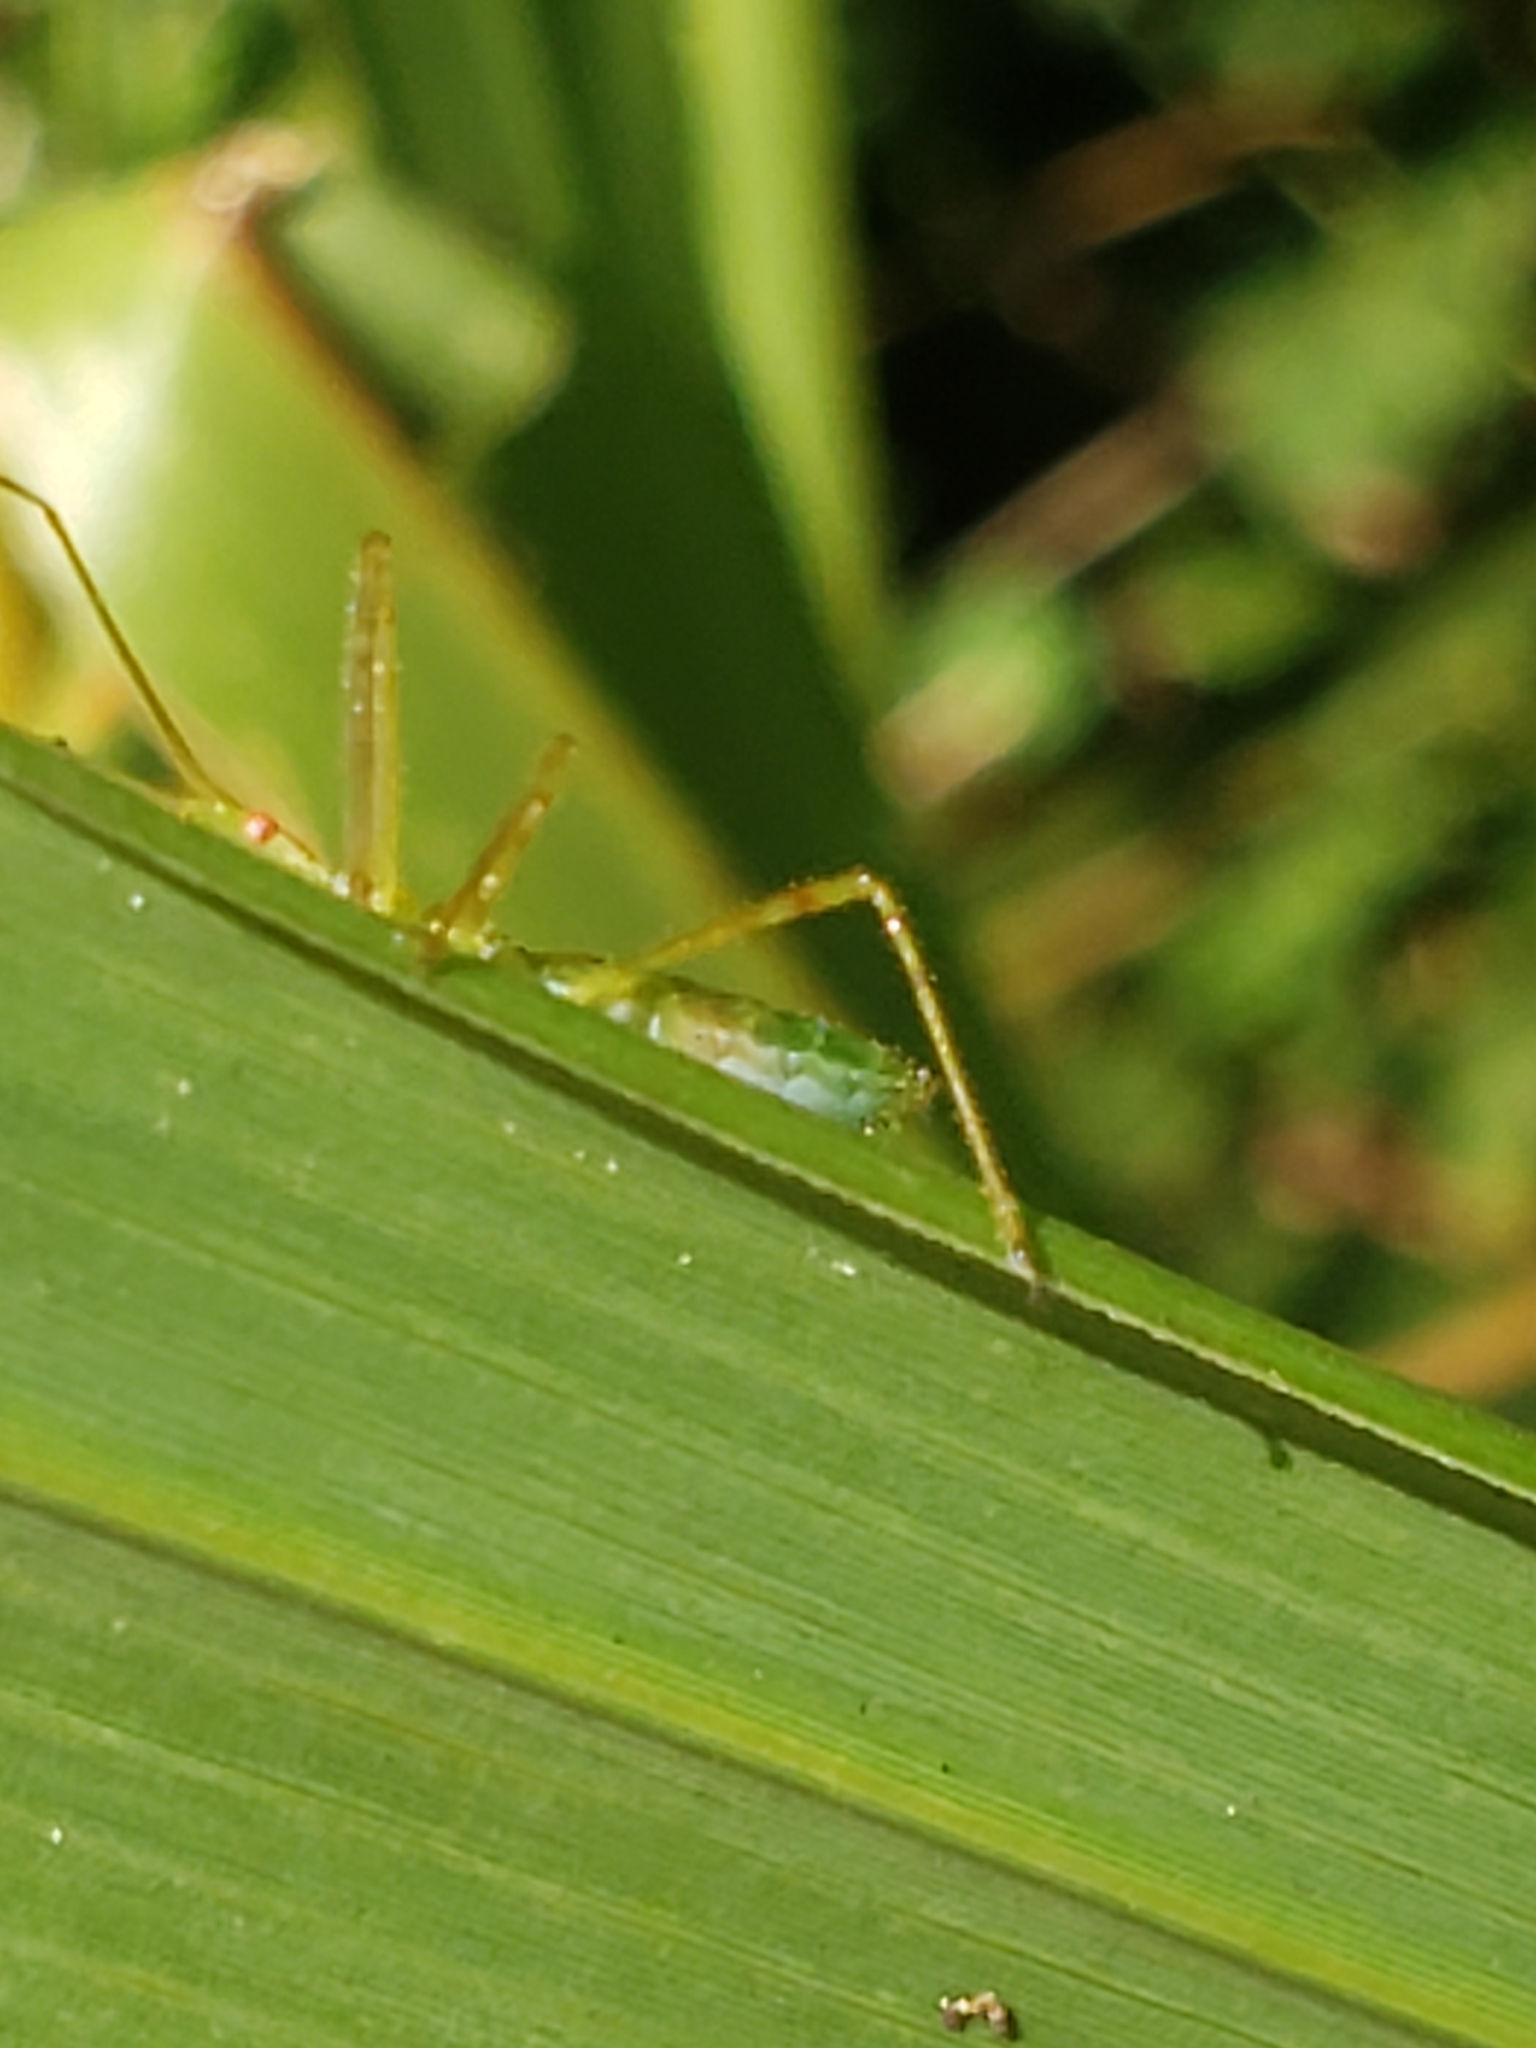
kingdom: Animalia
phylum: Arthropoda
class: Insecta
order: Hemiptera
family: Reduviidae
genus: Zelus
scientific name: Zelus luridus
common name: Pale green assassin bug
